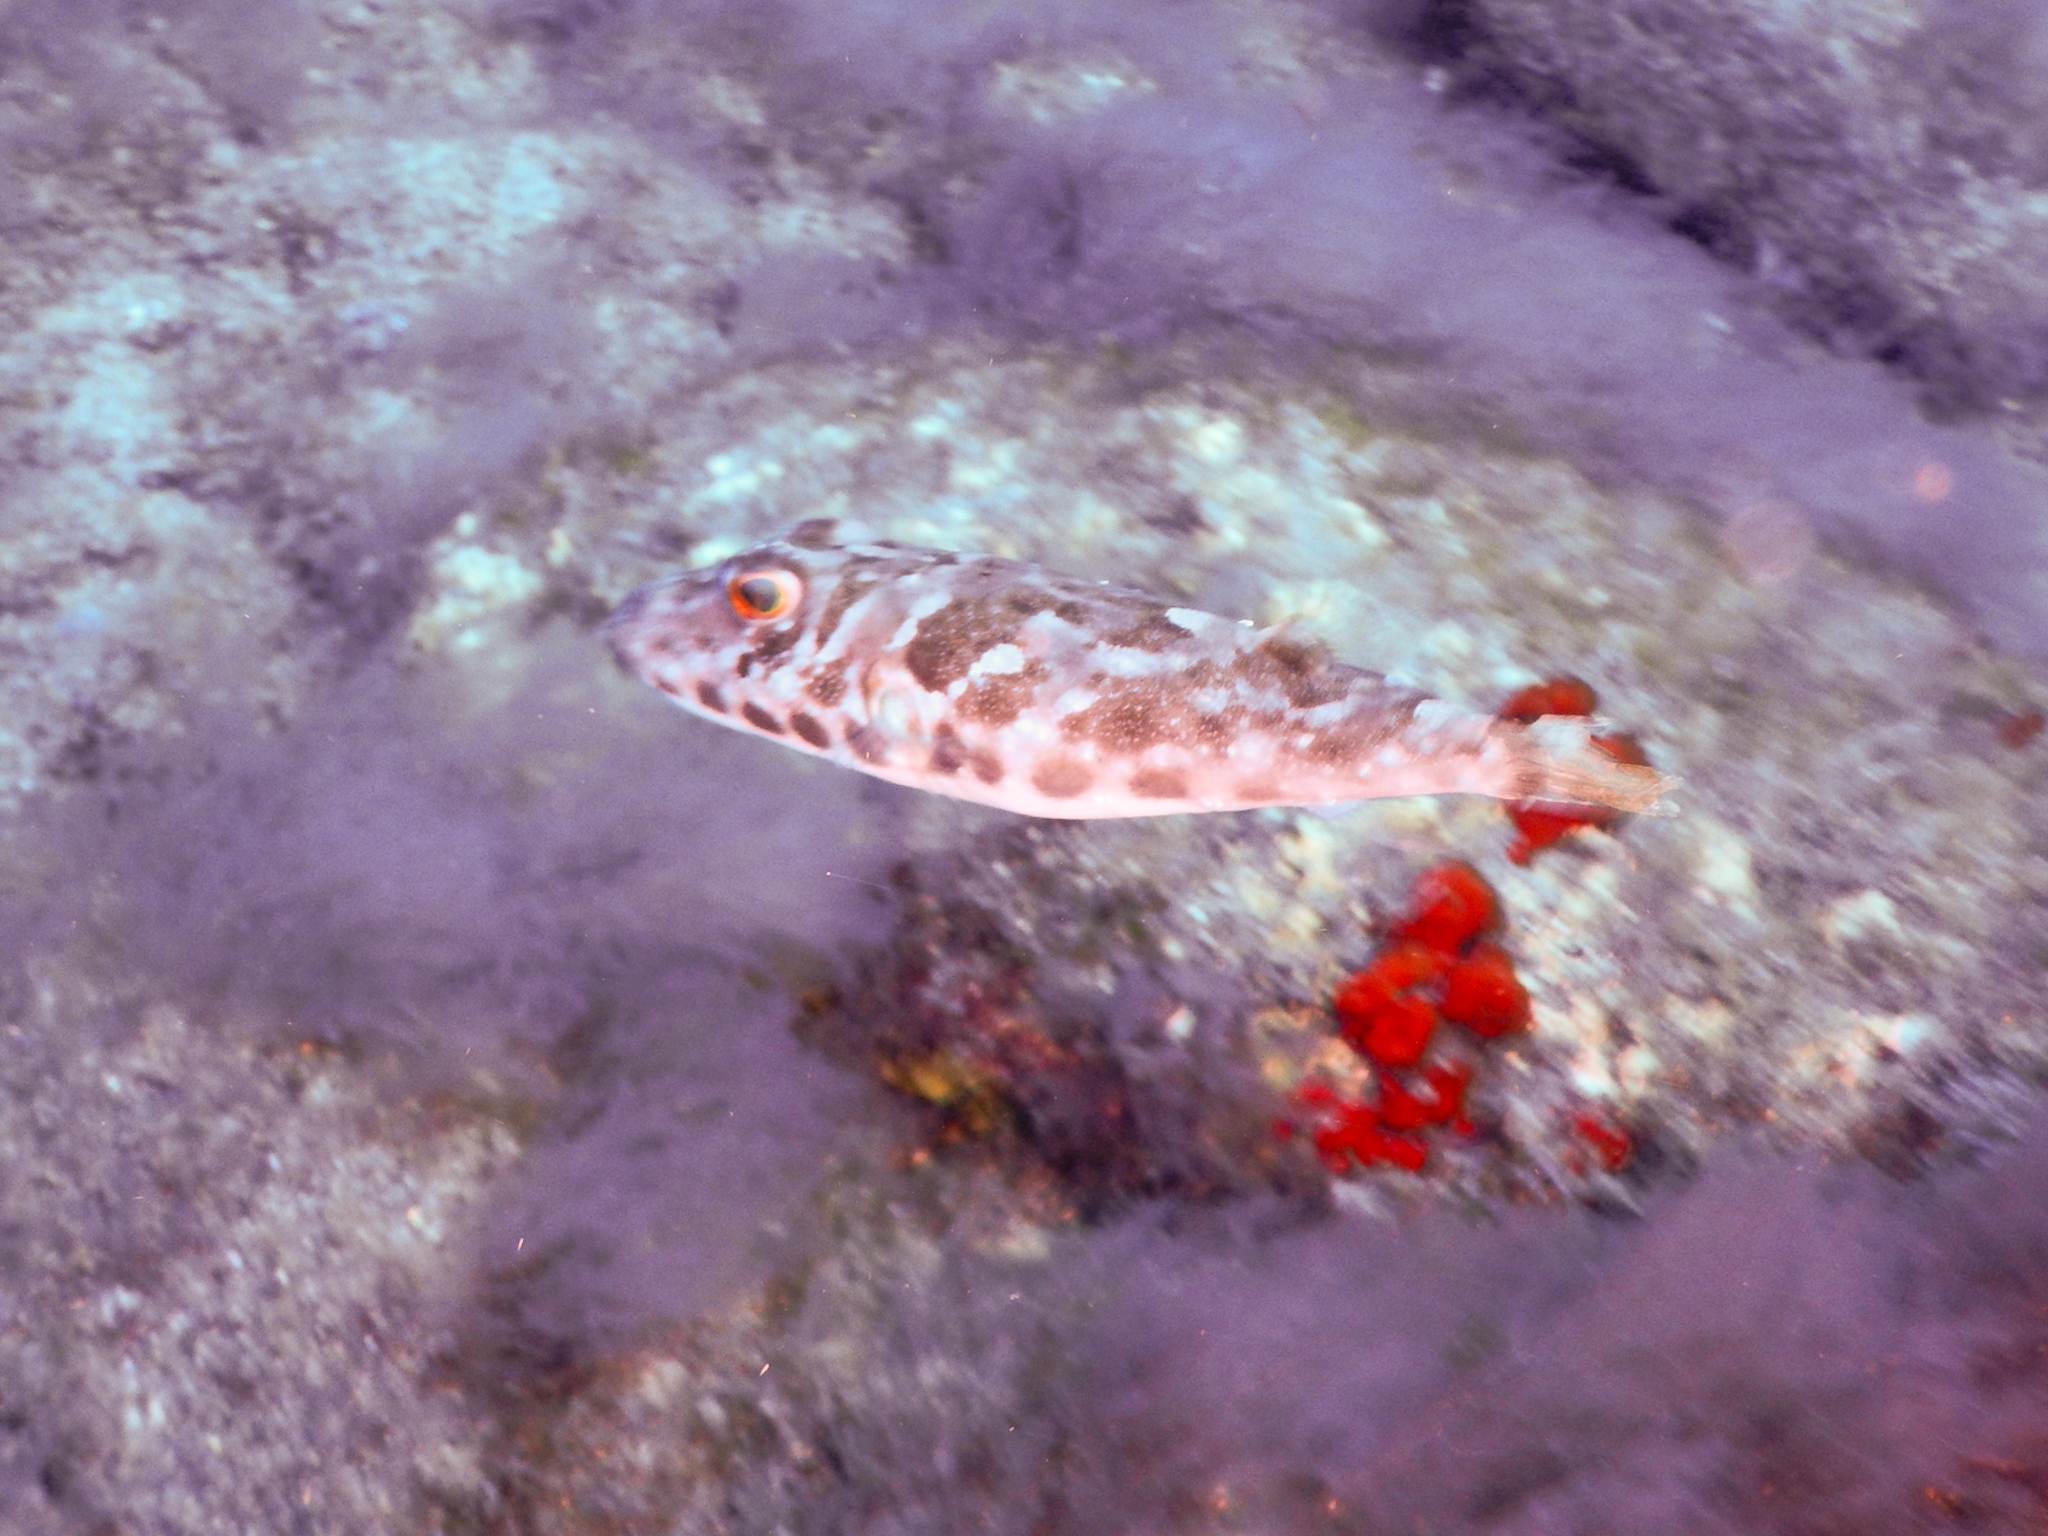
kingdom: Animalia
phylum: Chordata
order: Tetraodontiformes
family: Tetraodontidae
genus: Sphoeroides
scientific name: Sphoeroides marmoratus
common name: Guinean puffer
